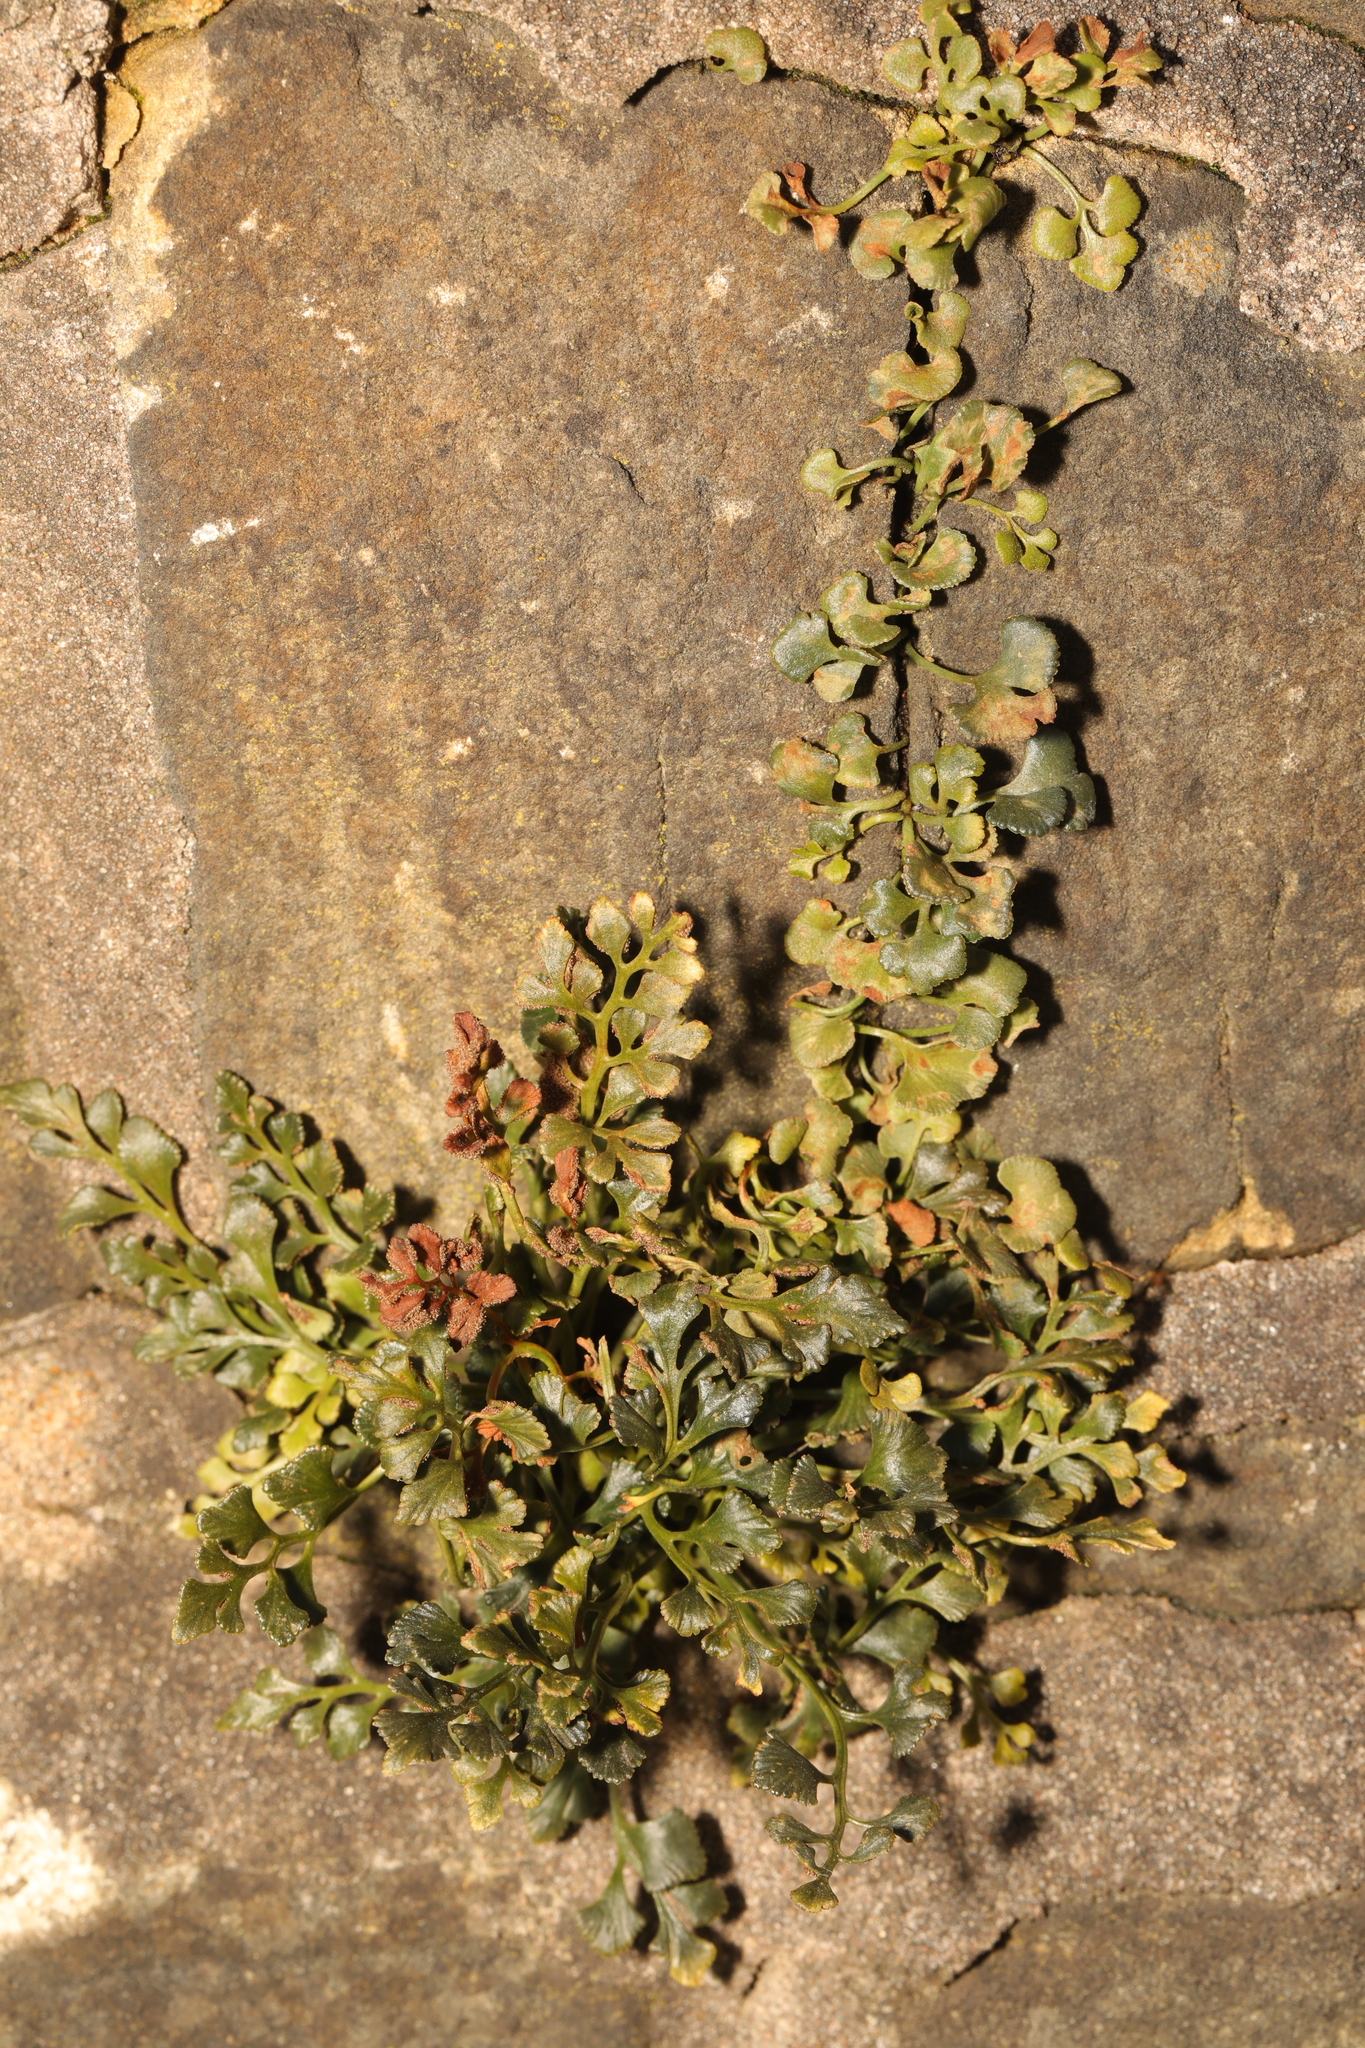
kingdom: Plantae
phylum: Tracheophyta
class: Polypodiopsida
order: Polypodiales
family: Aspleniaceae
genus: Asplenium
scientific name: Asplenium ruta-muraria
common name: Wall-rue
